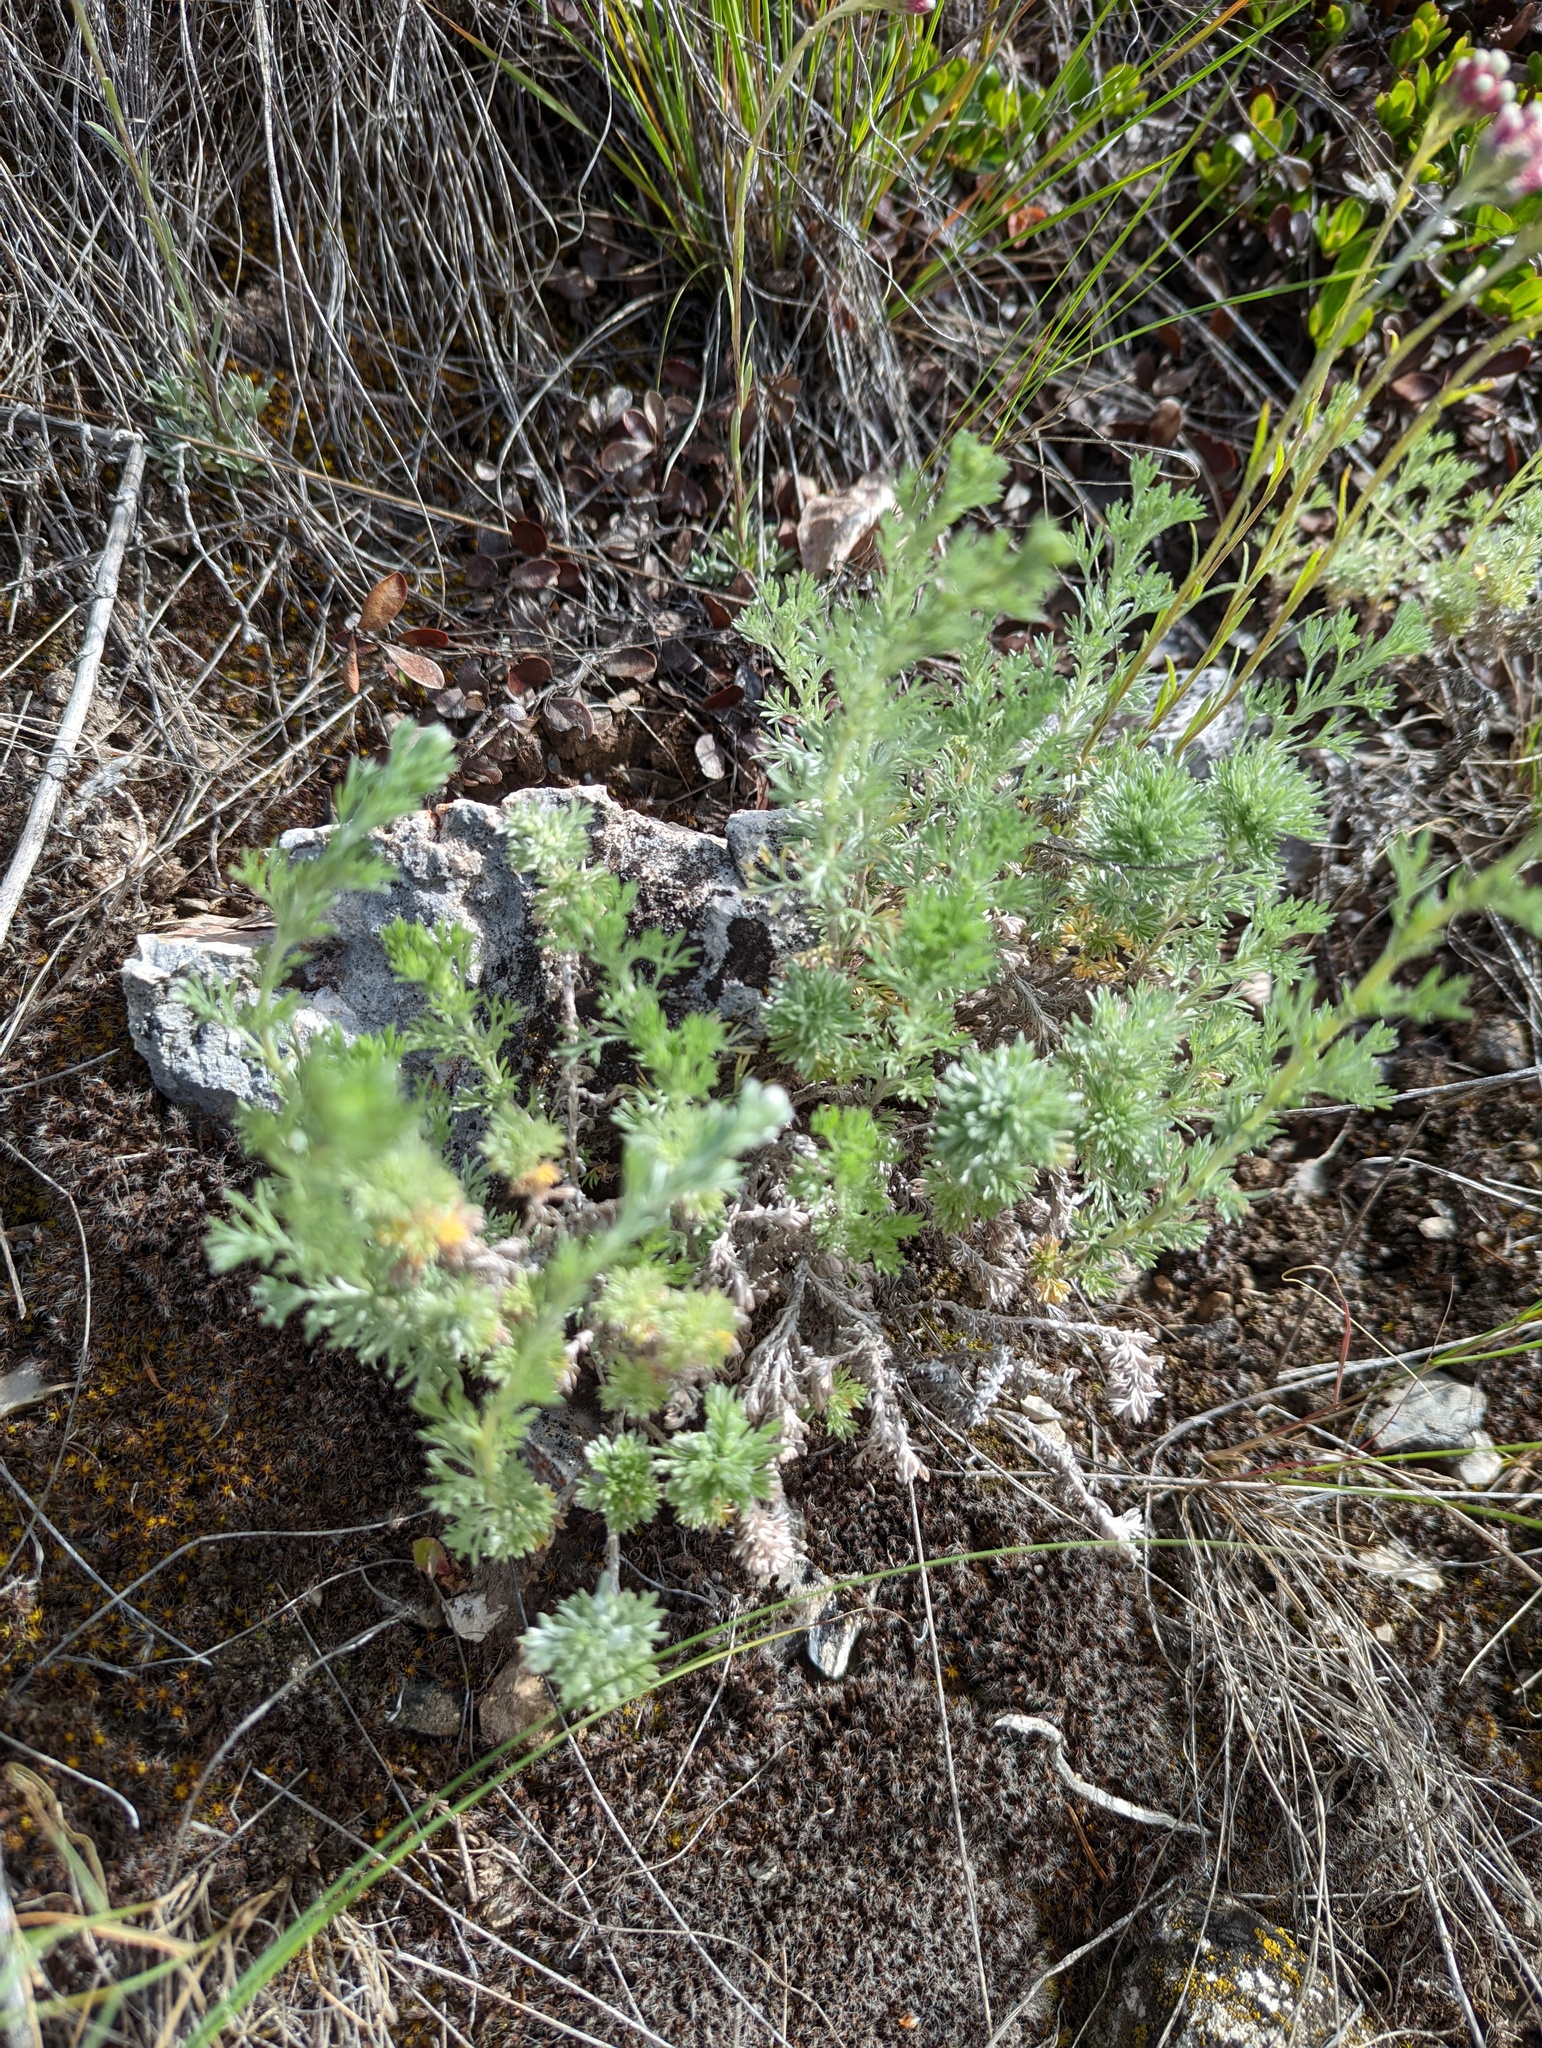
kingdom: Plantae
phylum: Tracheophyta
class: Magnoliopsida
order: Asterales
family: Asteraceae
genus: Artemisia
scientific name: Artemisia frigida
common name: Prairie sagewort
